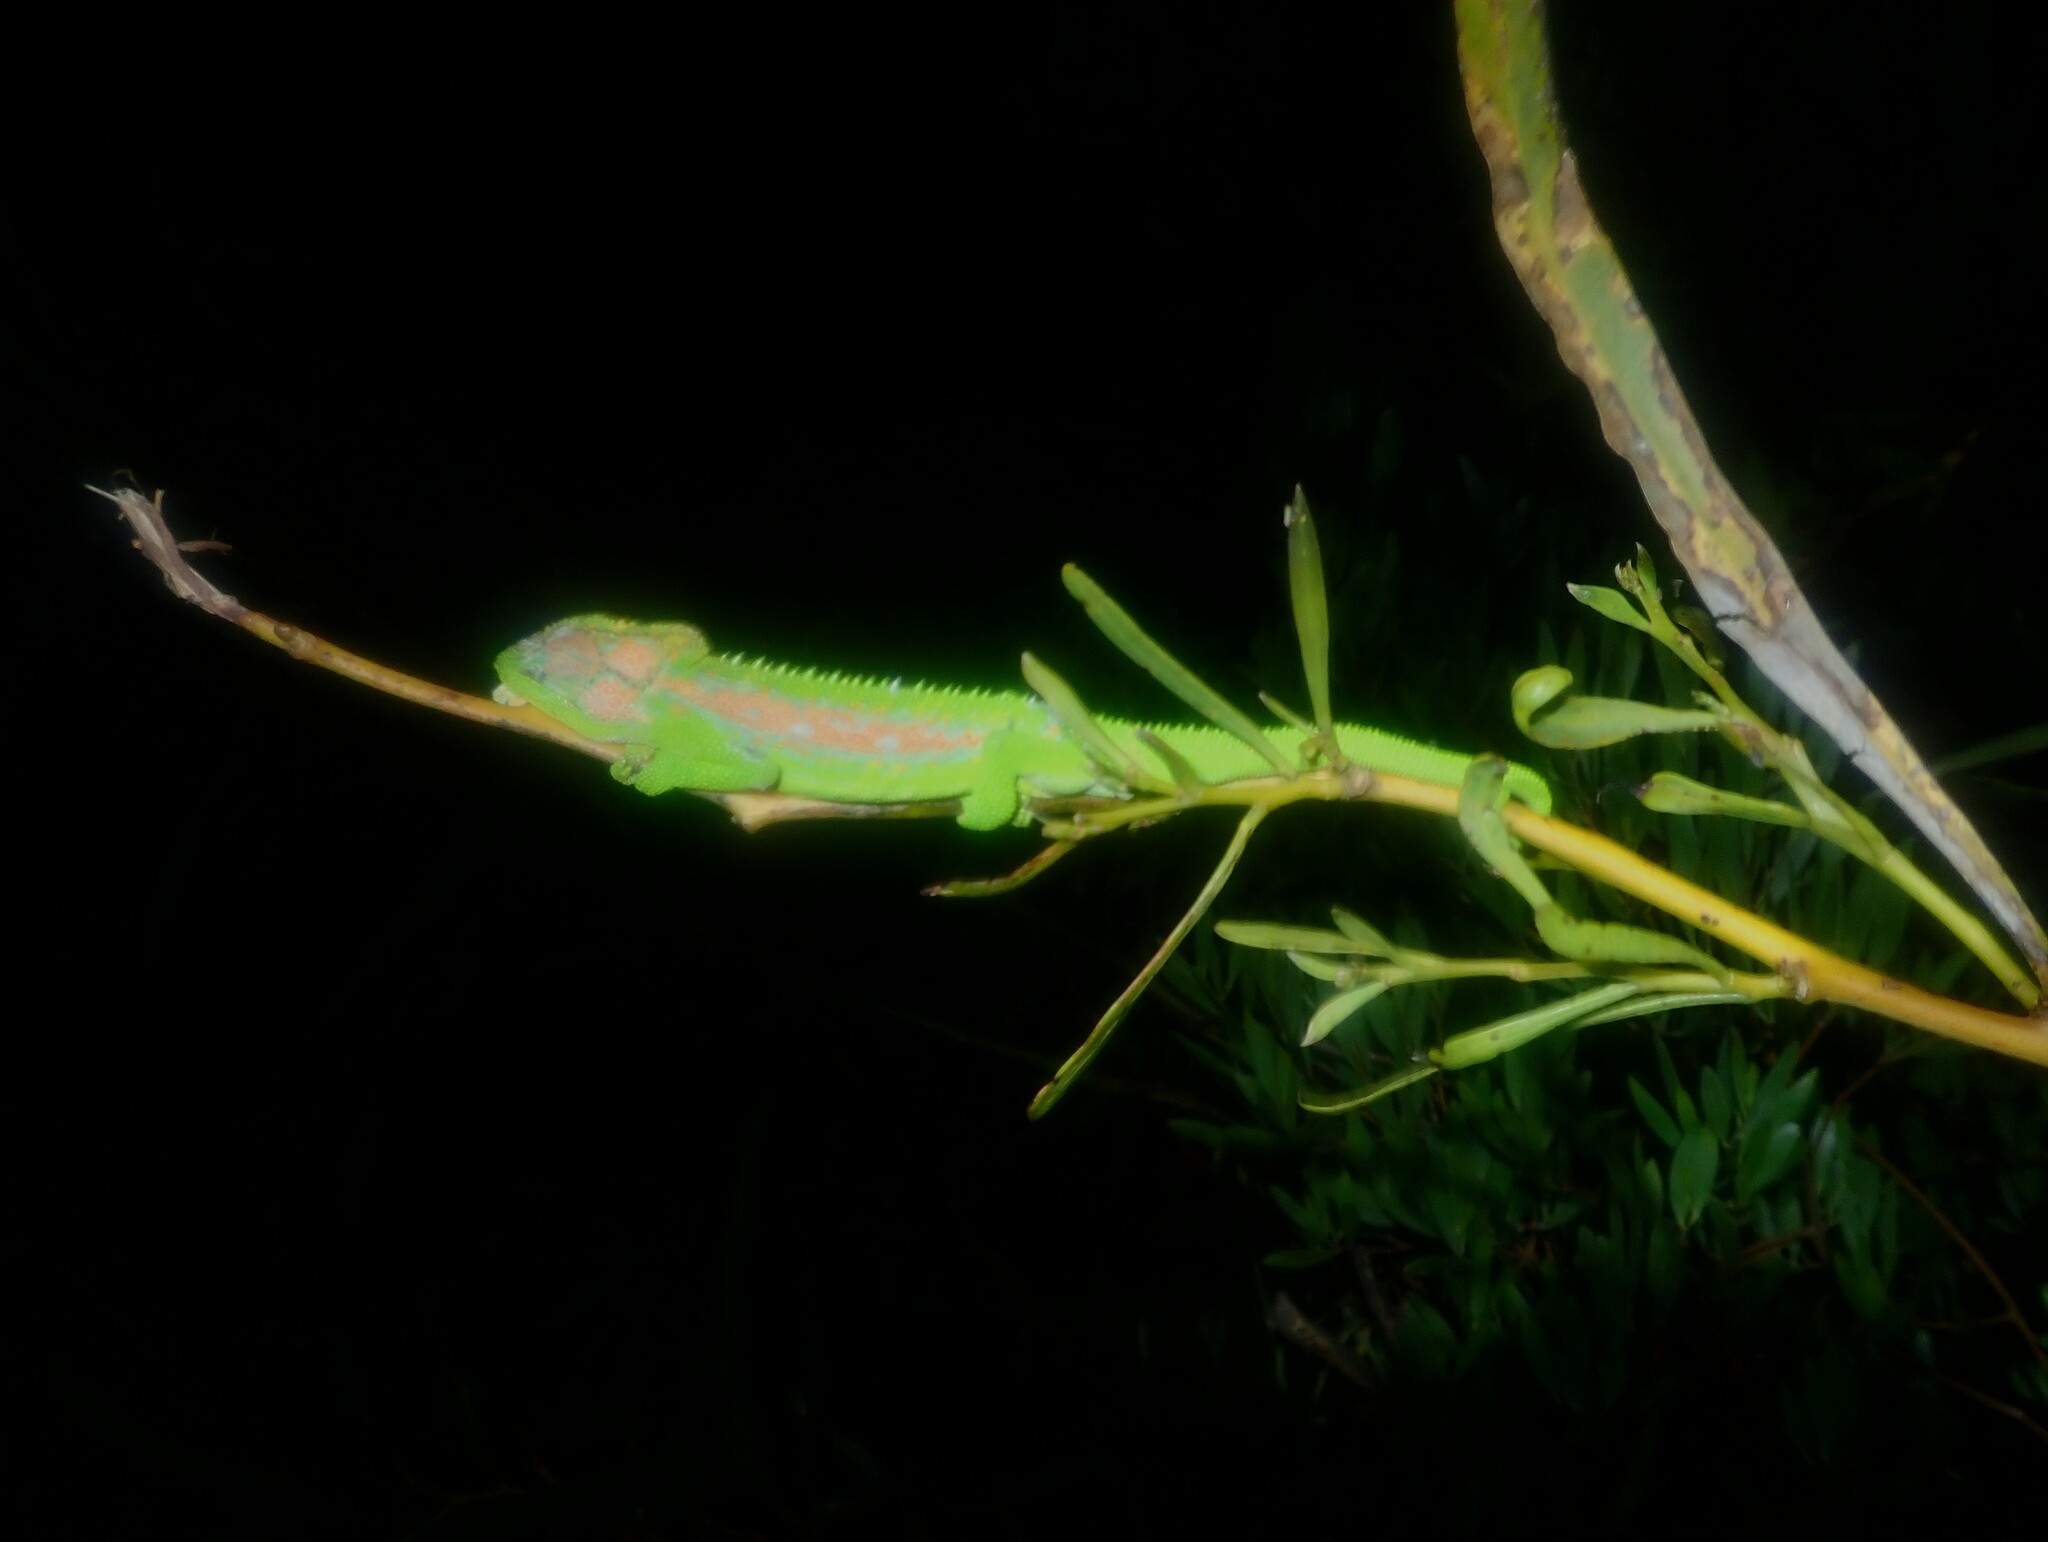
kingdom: Animalia
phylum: Chordata
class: Squamata
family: Chamaeleonidae
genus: Bradypodion
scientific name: Bradypodion pumilum
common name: Cape dwarf chameleon
